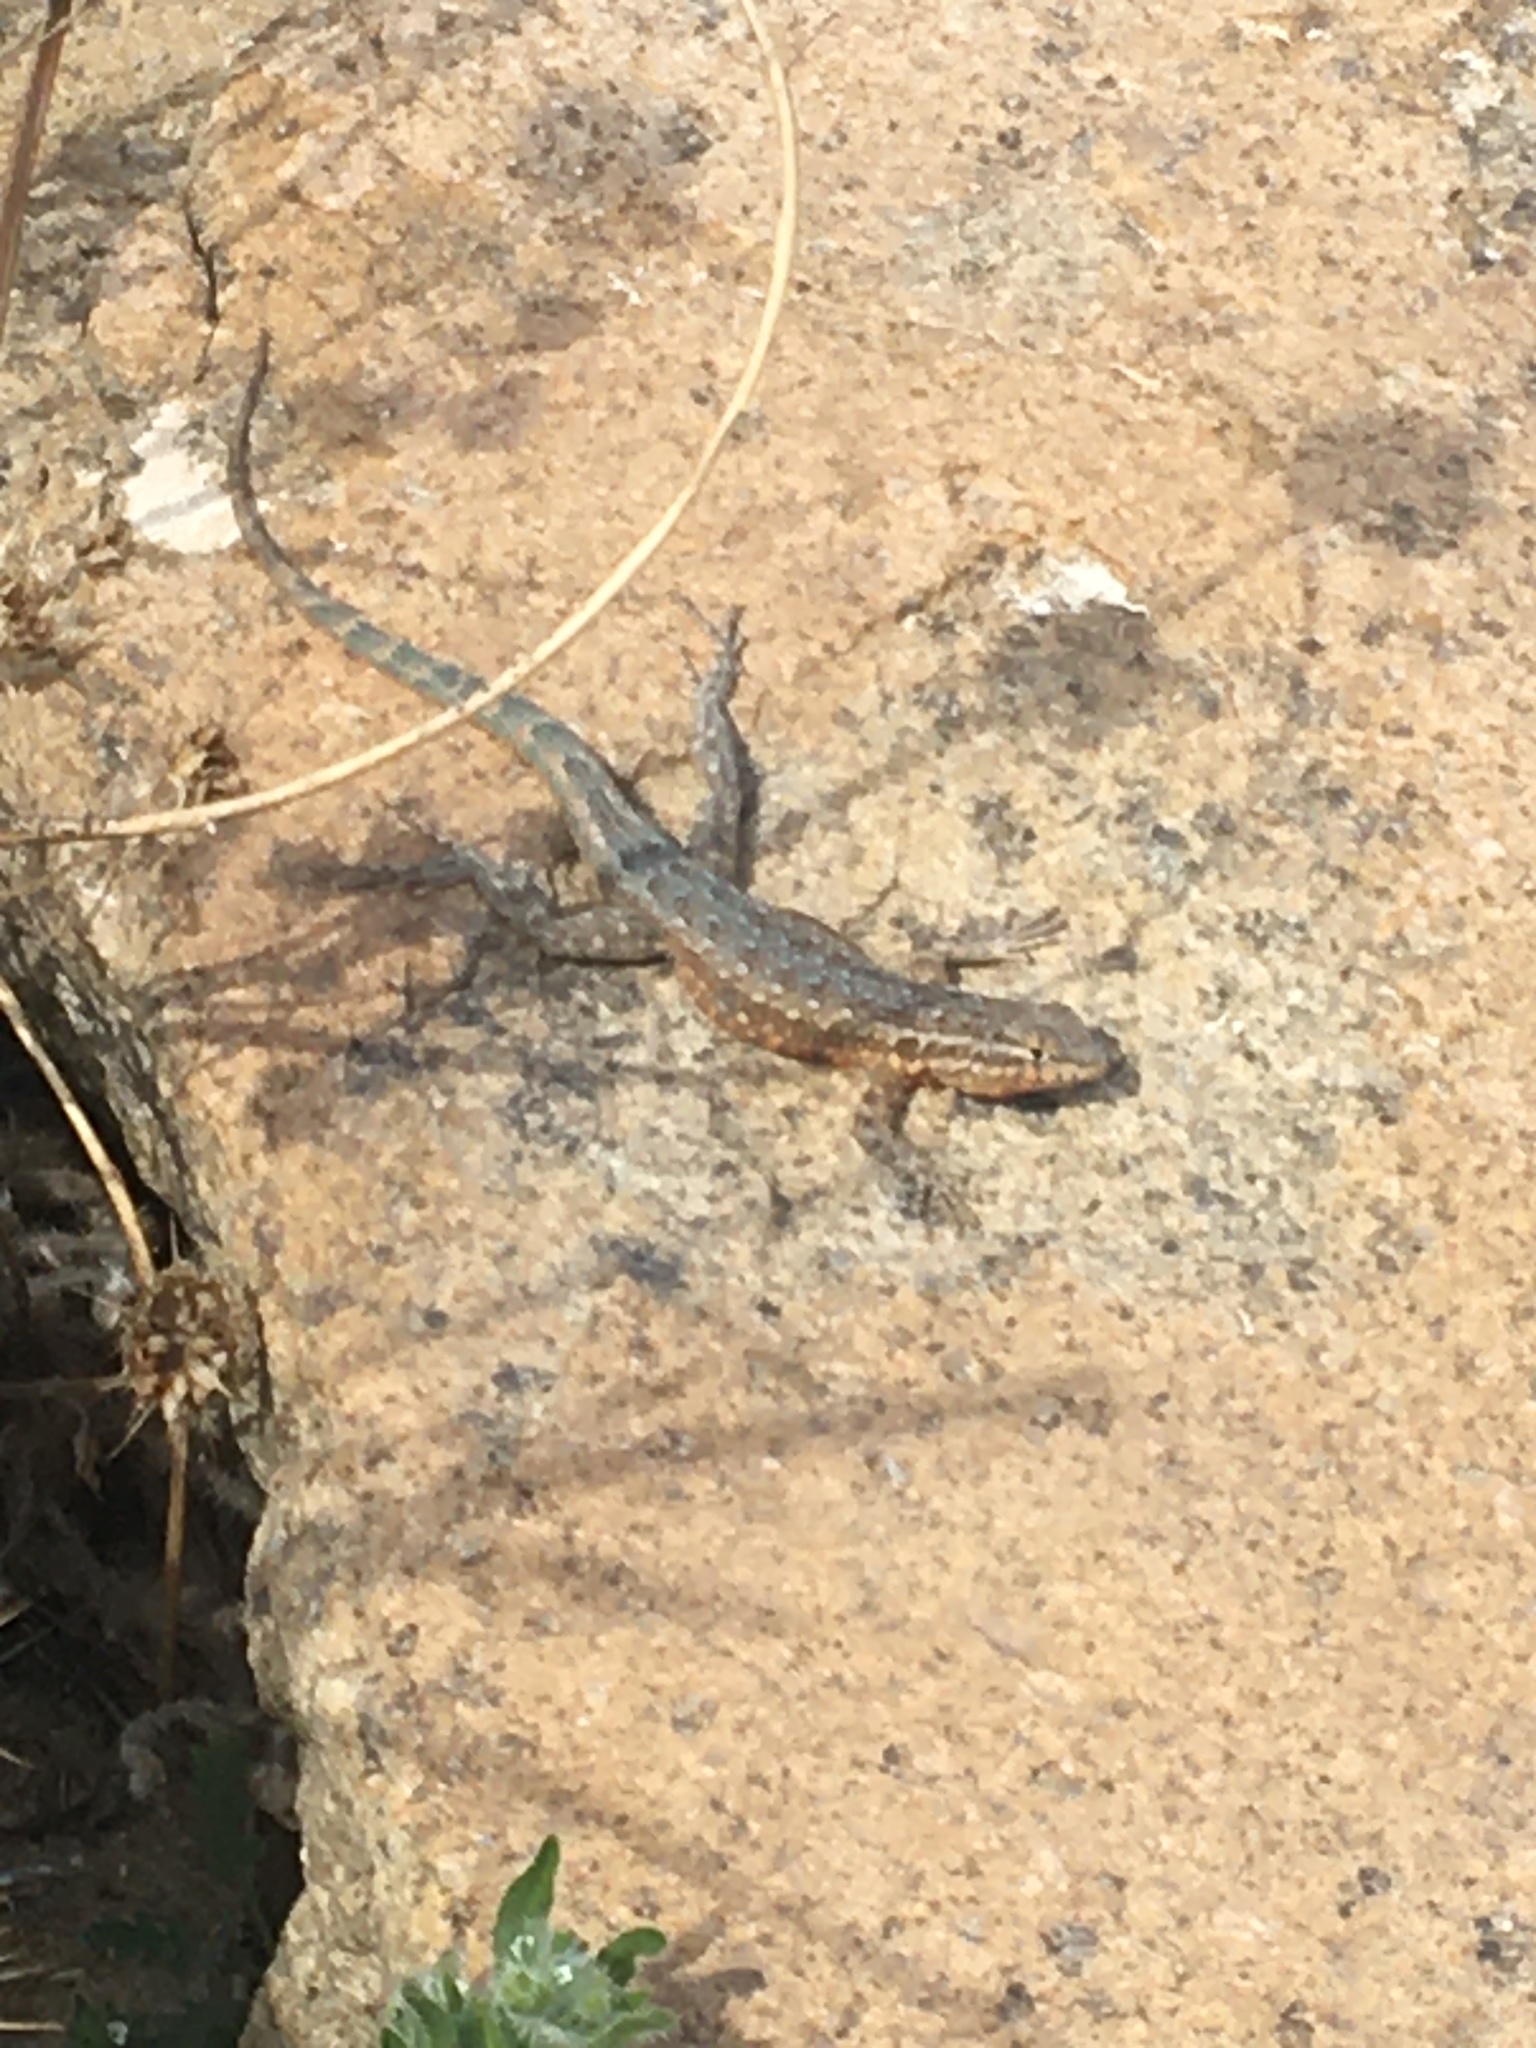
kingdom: Animalia
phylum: Chordata
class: Squamata
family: Phrynosomatidae
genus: Uta
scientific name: Uta stansburiana
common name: Side-blotched lizard
